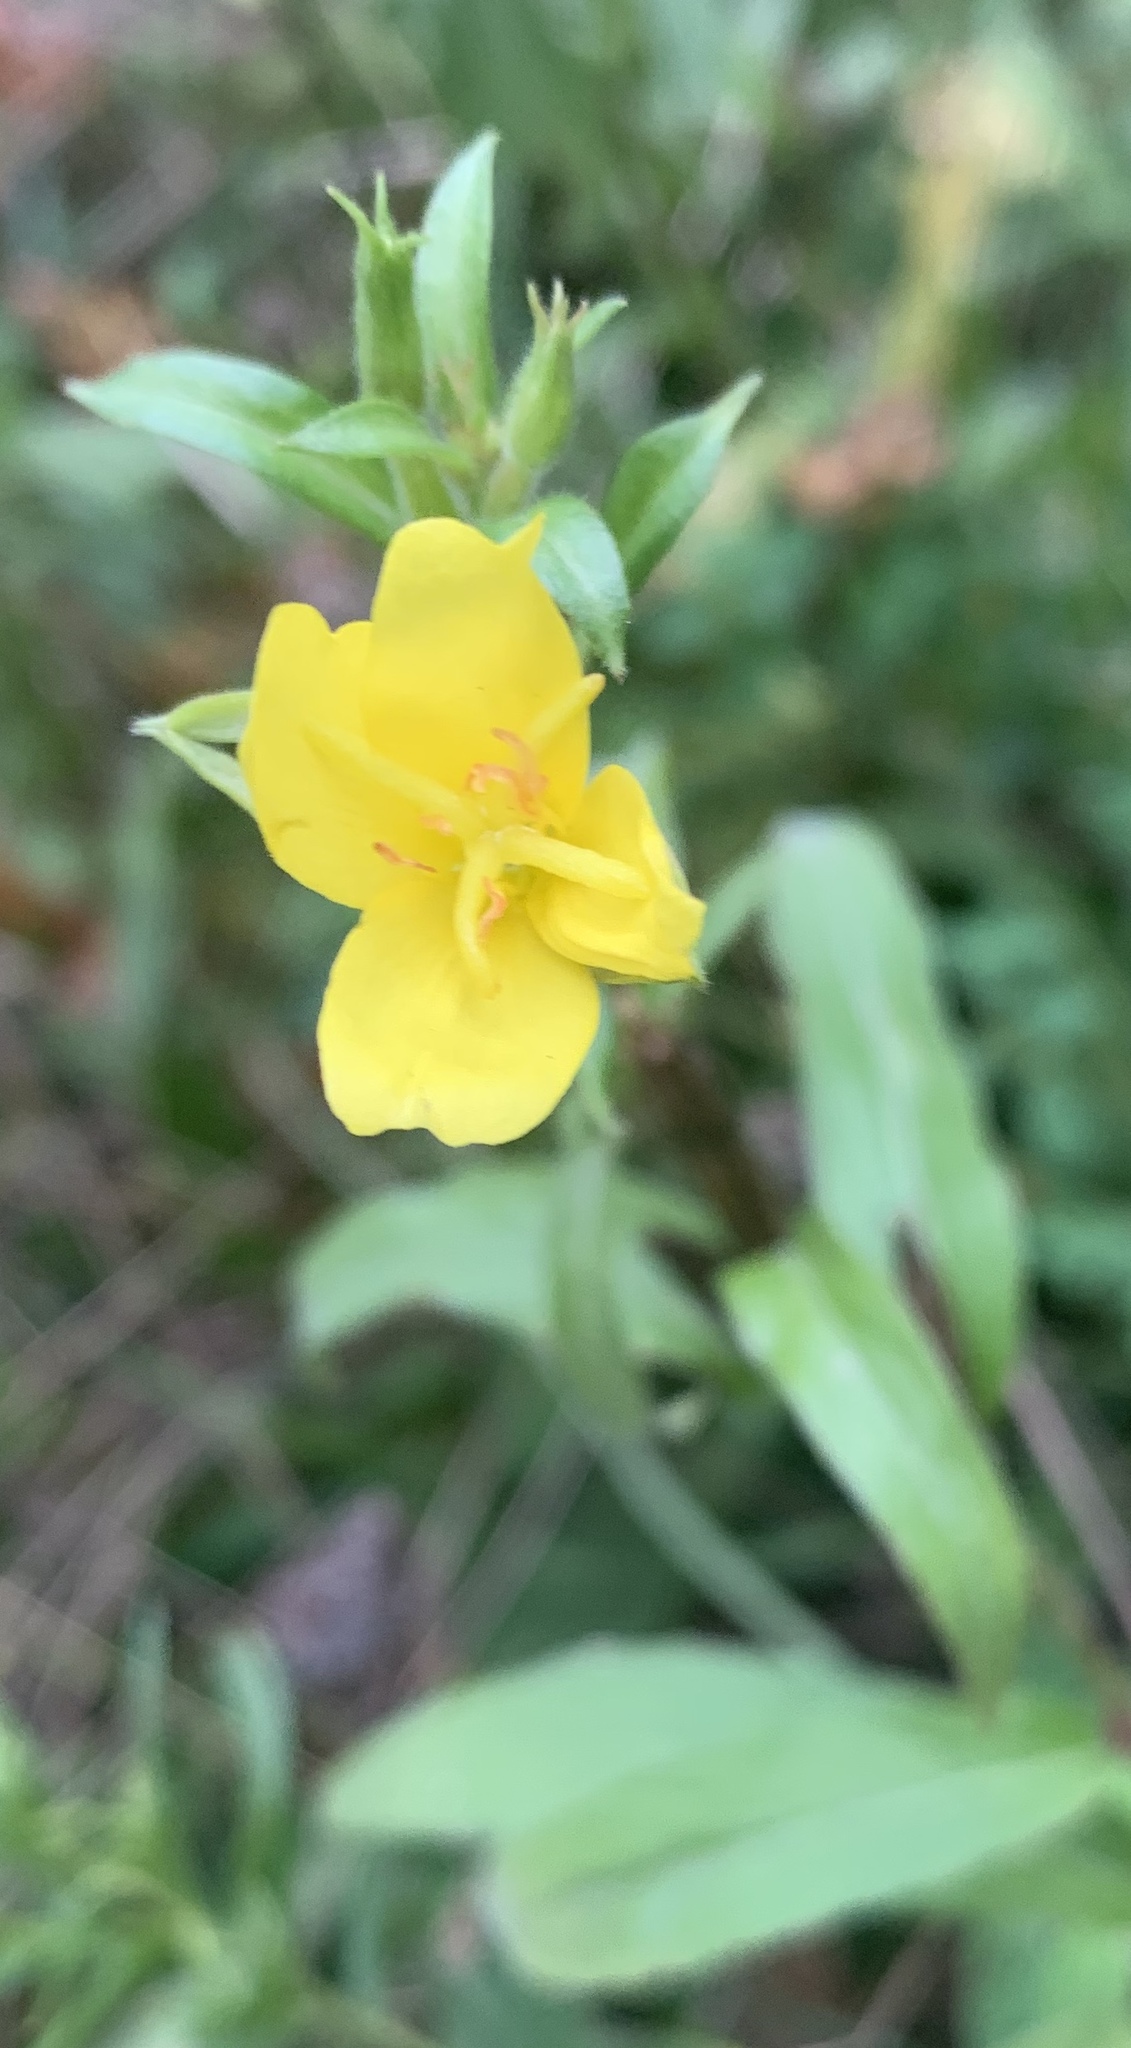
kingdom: Plantae
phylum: Tracheophyta
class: Magnoliopsida
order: Myrtales
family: Onagraceae
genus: Oenothera
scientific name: Oenothera biennis
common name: Common evening-primrose
